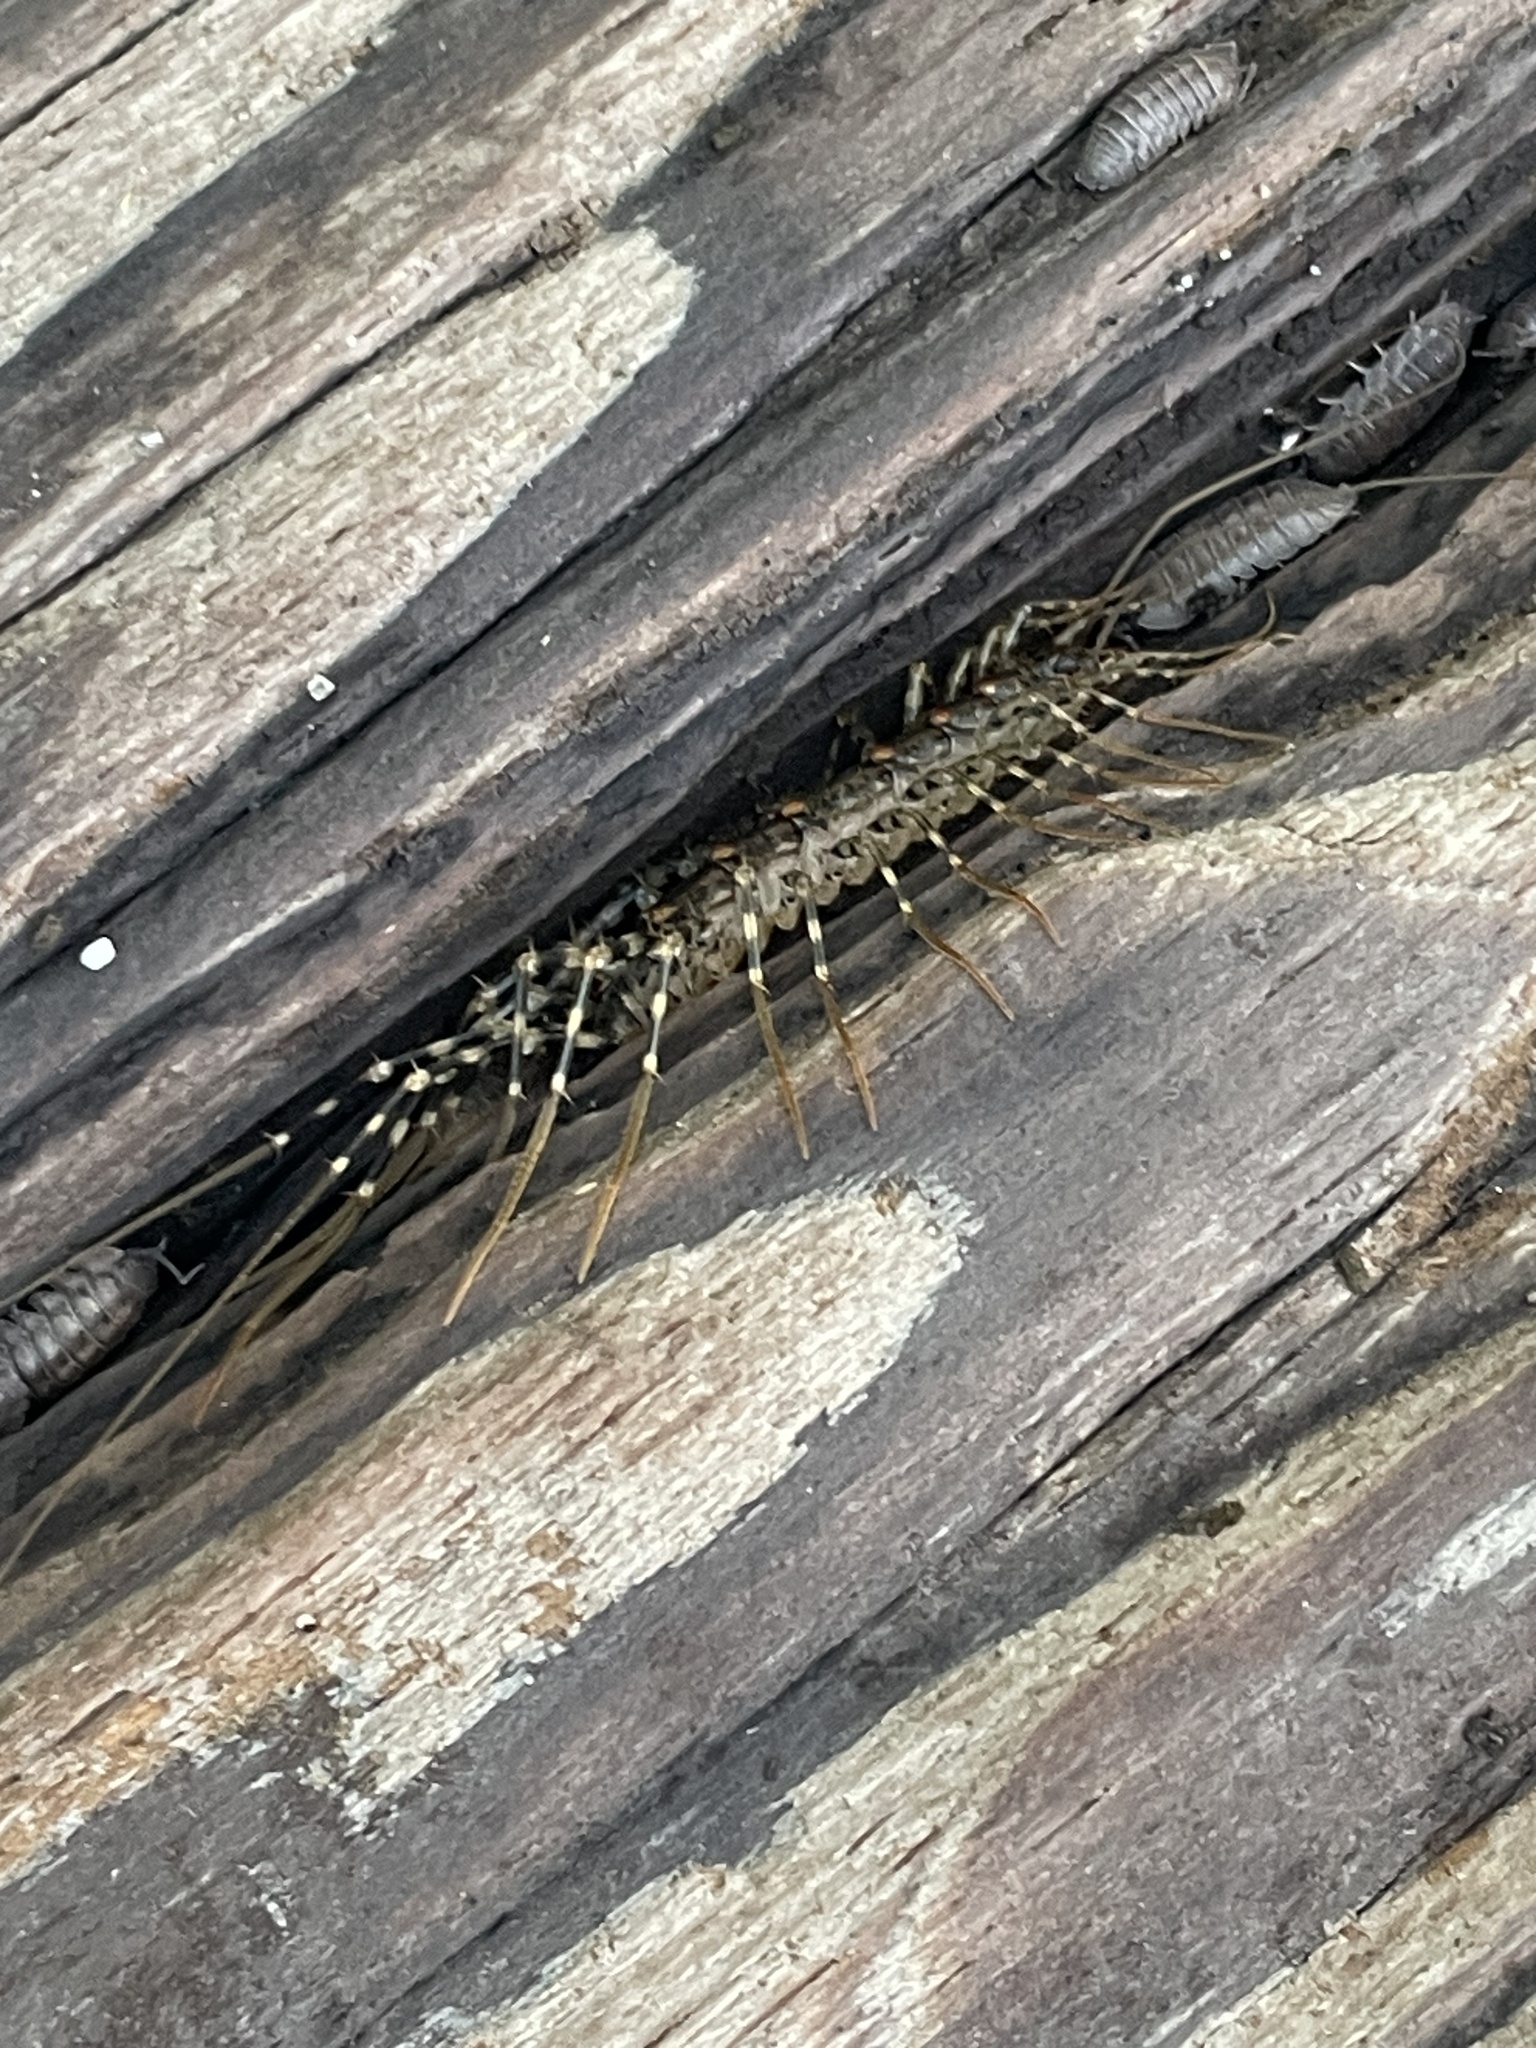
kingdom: Animalia
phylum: Arthropoda
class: Chilopoda
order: Scutigeromorpha
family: Scutigeridae
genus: Scutigera
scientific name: Scutigera coleoptrata
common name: House centipede
